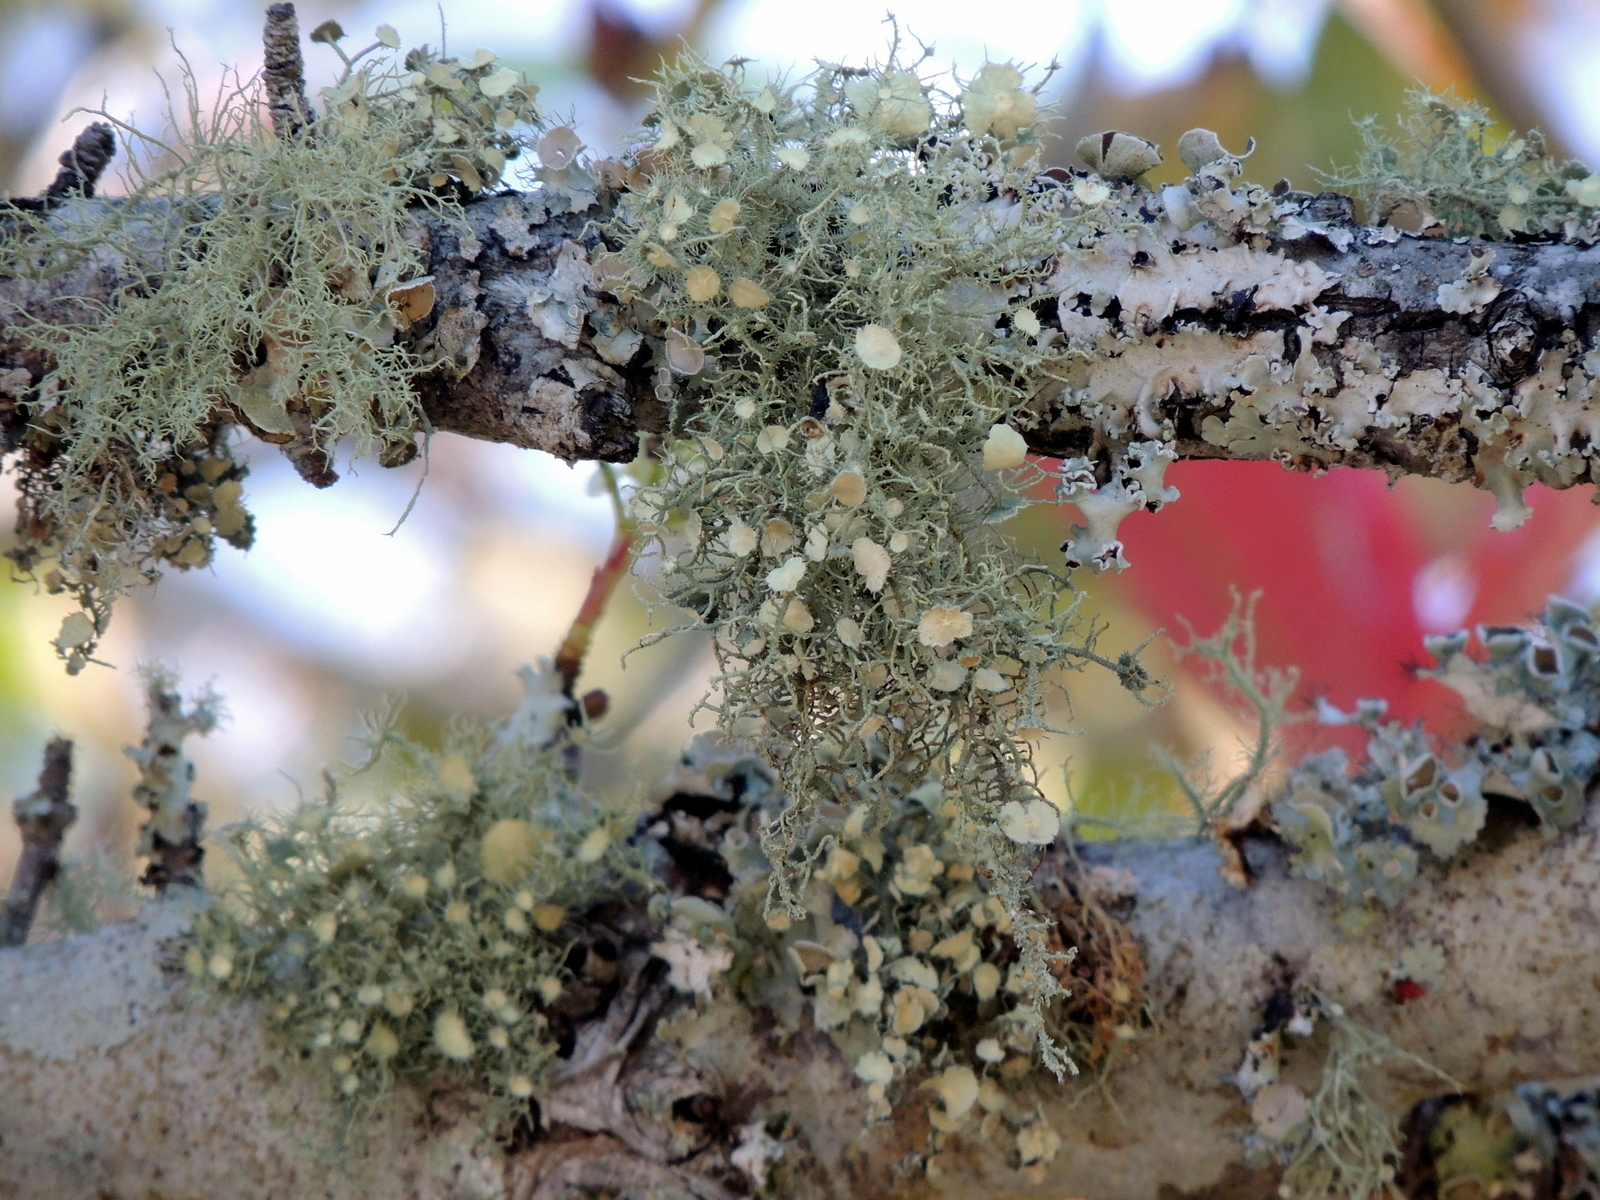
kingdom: Fungi
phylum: Ascomycota
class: Lecanoromycetes
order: Lecanorales
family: Parmeliaceae
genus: Usnea
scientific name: Usnea
